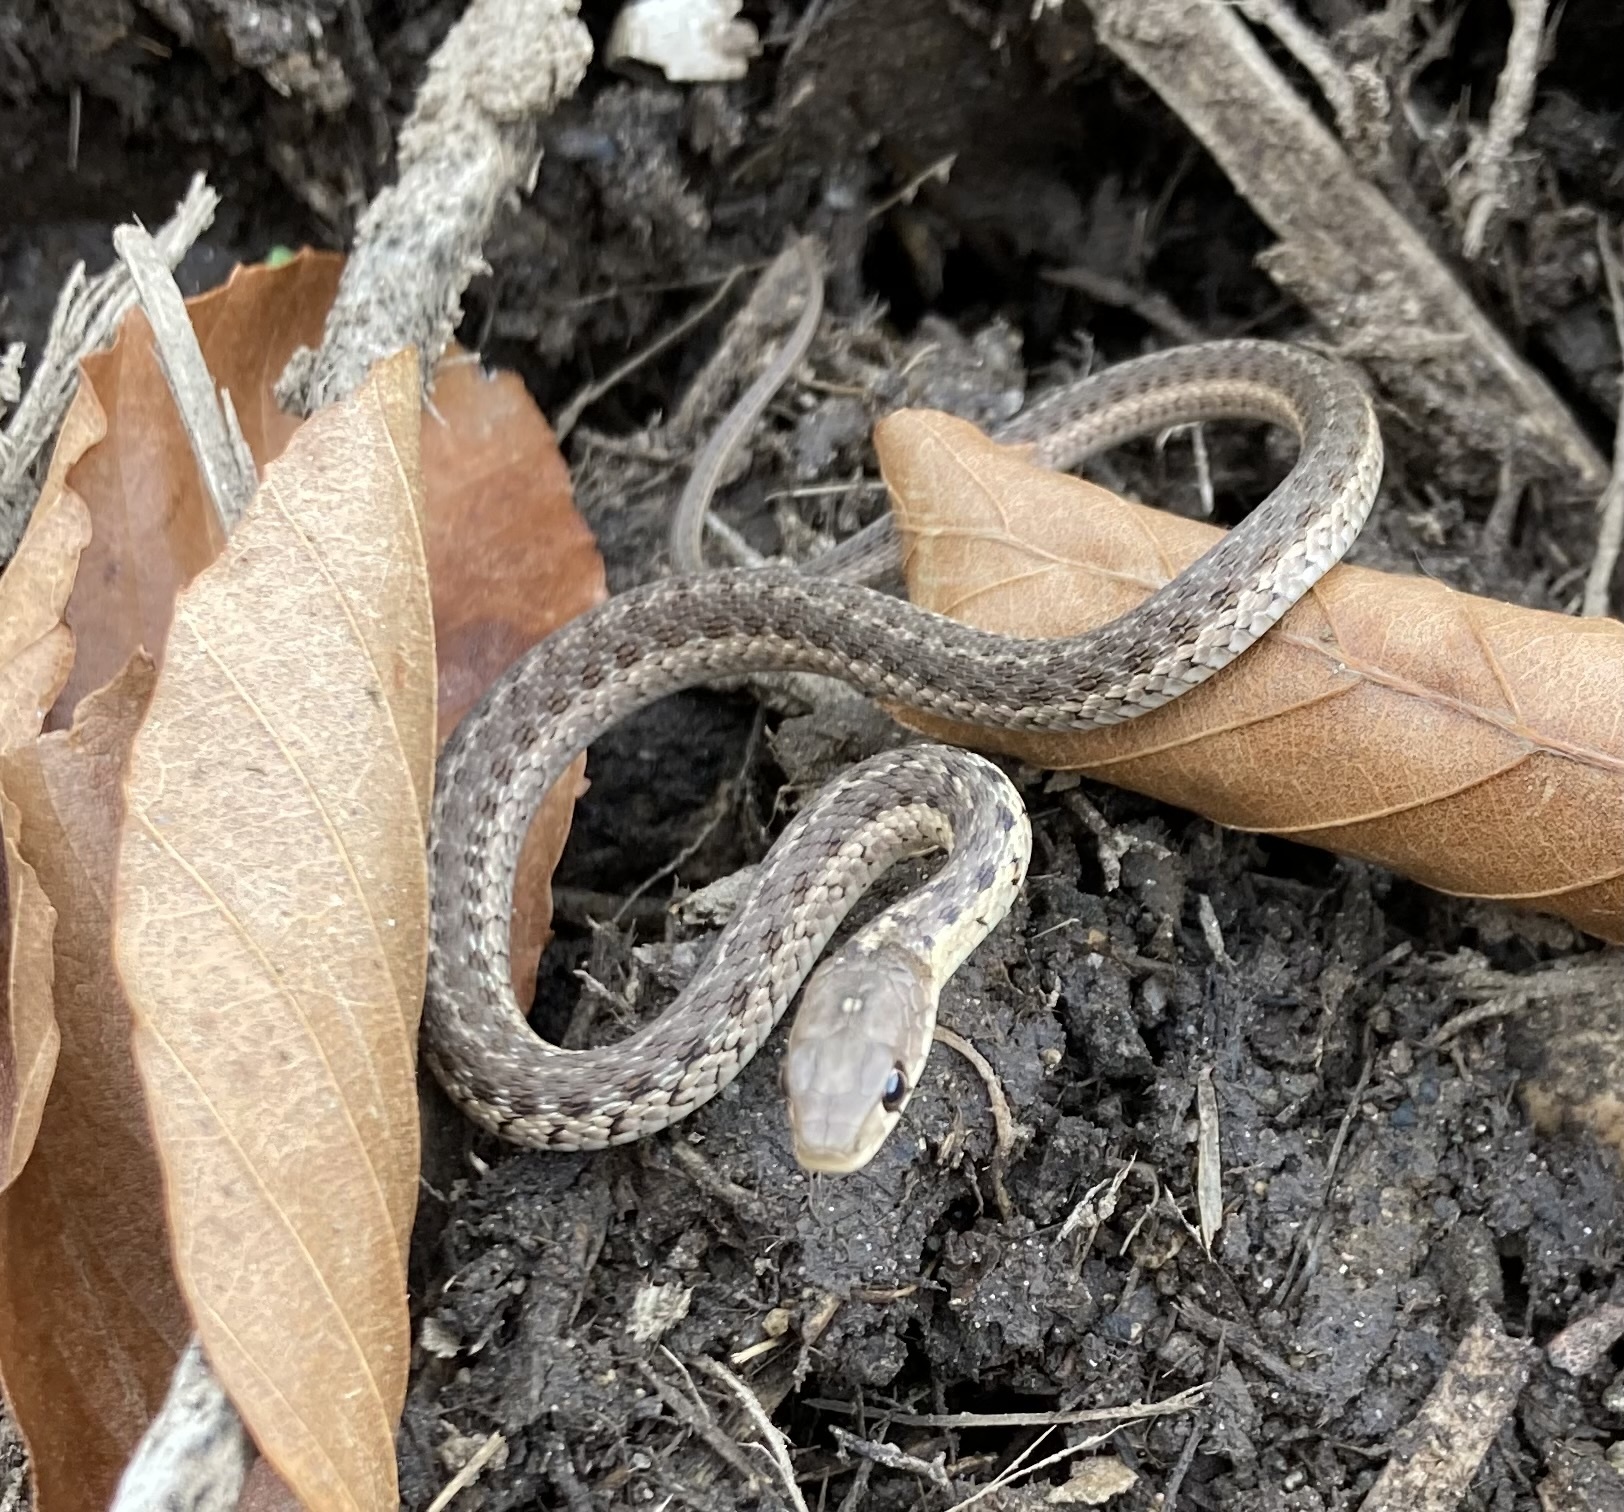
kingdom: Animalia
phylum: Chordata
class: Squamata
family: Colubridae
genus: Thamnophis
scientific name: Thamnophis sirtalis
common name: Common garter snake
